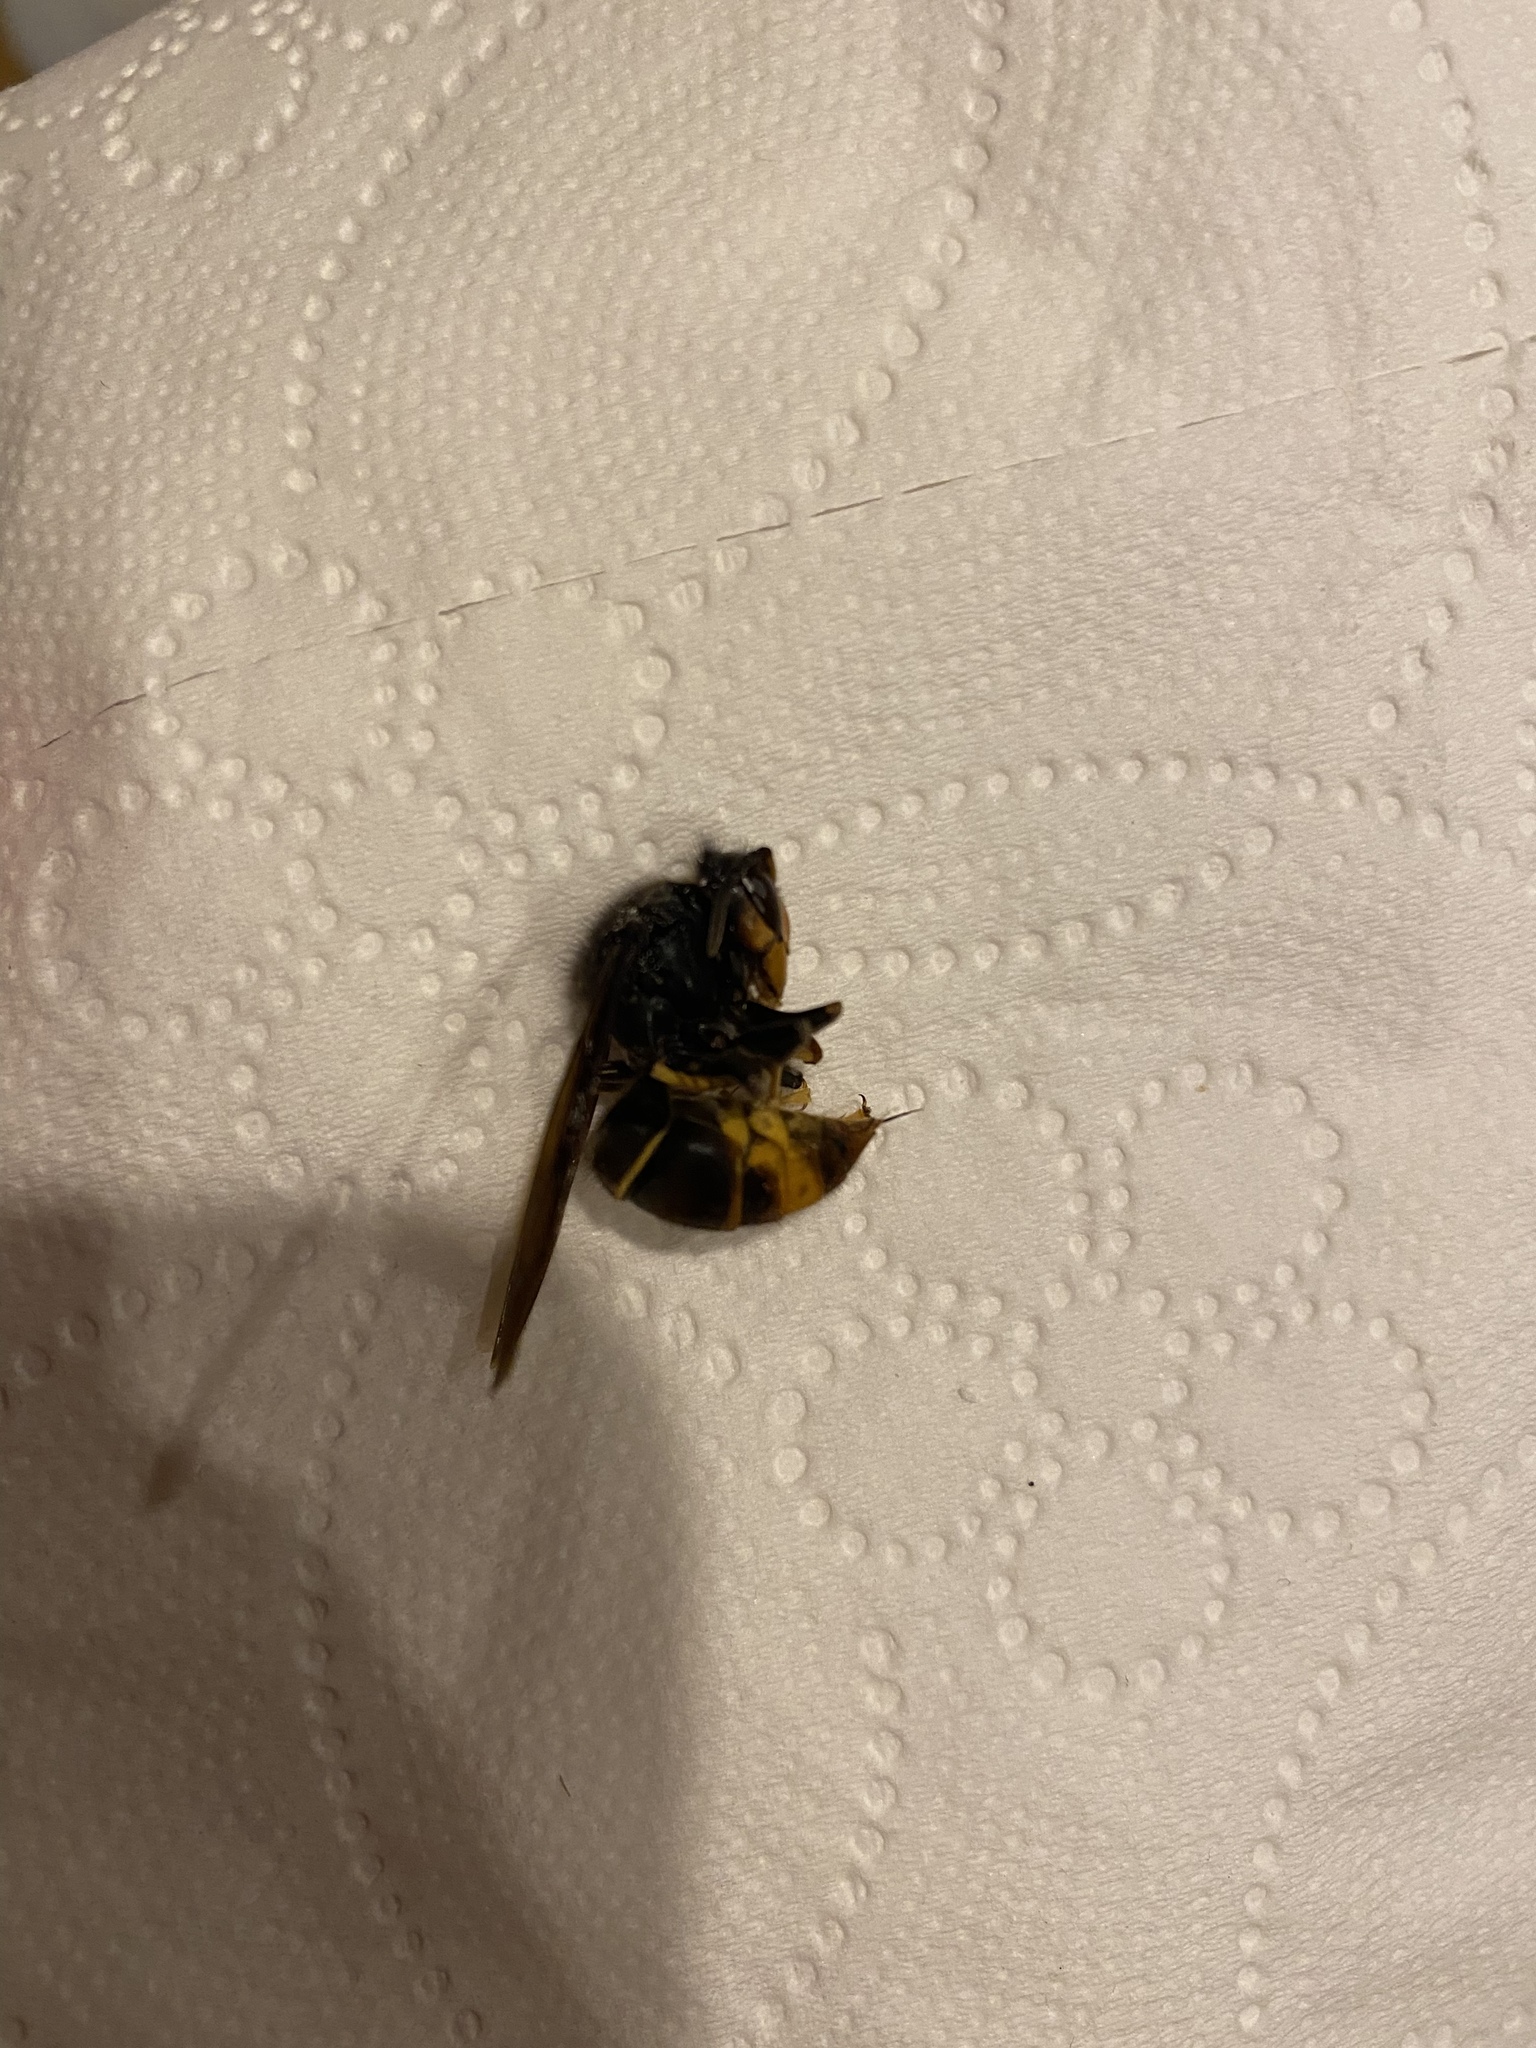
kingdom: Animalia
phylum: Arthropoda
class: Insecta
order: Hymenoptera
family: Vespidae
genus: Vespa
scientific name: Vespa velutina
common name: Asian hornet
